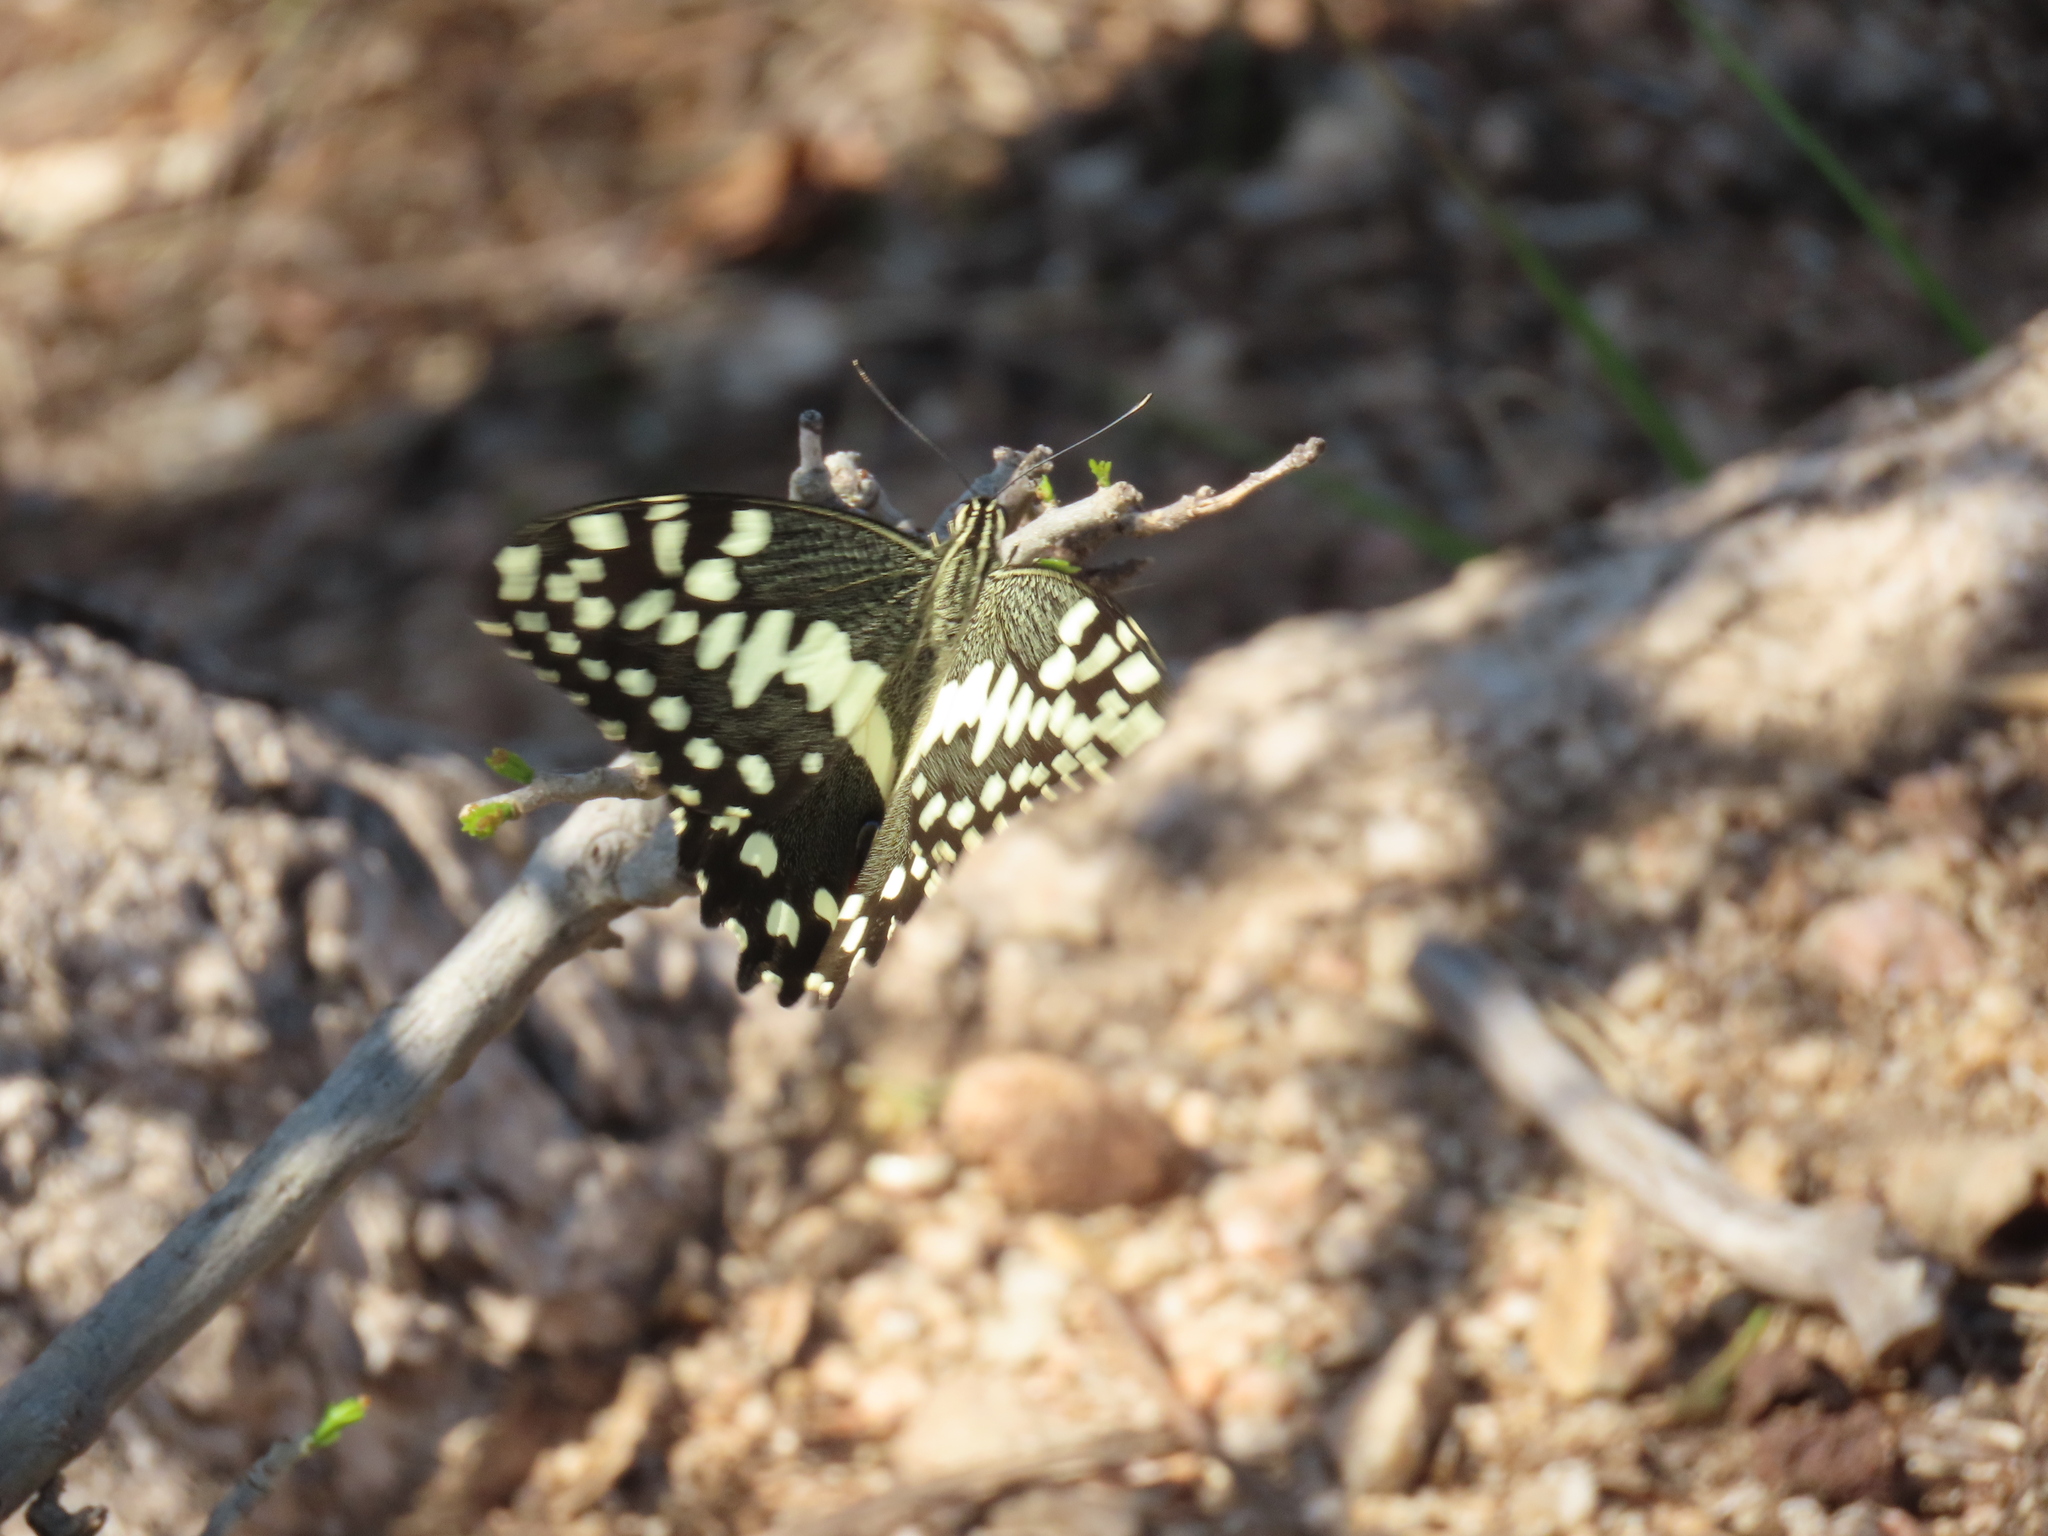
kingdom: Animalia
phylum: Arthropoda
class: Insecta
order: Lepidoptera
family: Papilionidae
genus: Papilio
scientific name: Papilio demodocus
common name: Christmas butterfly
